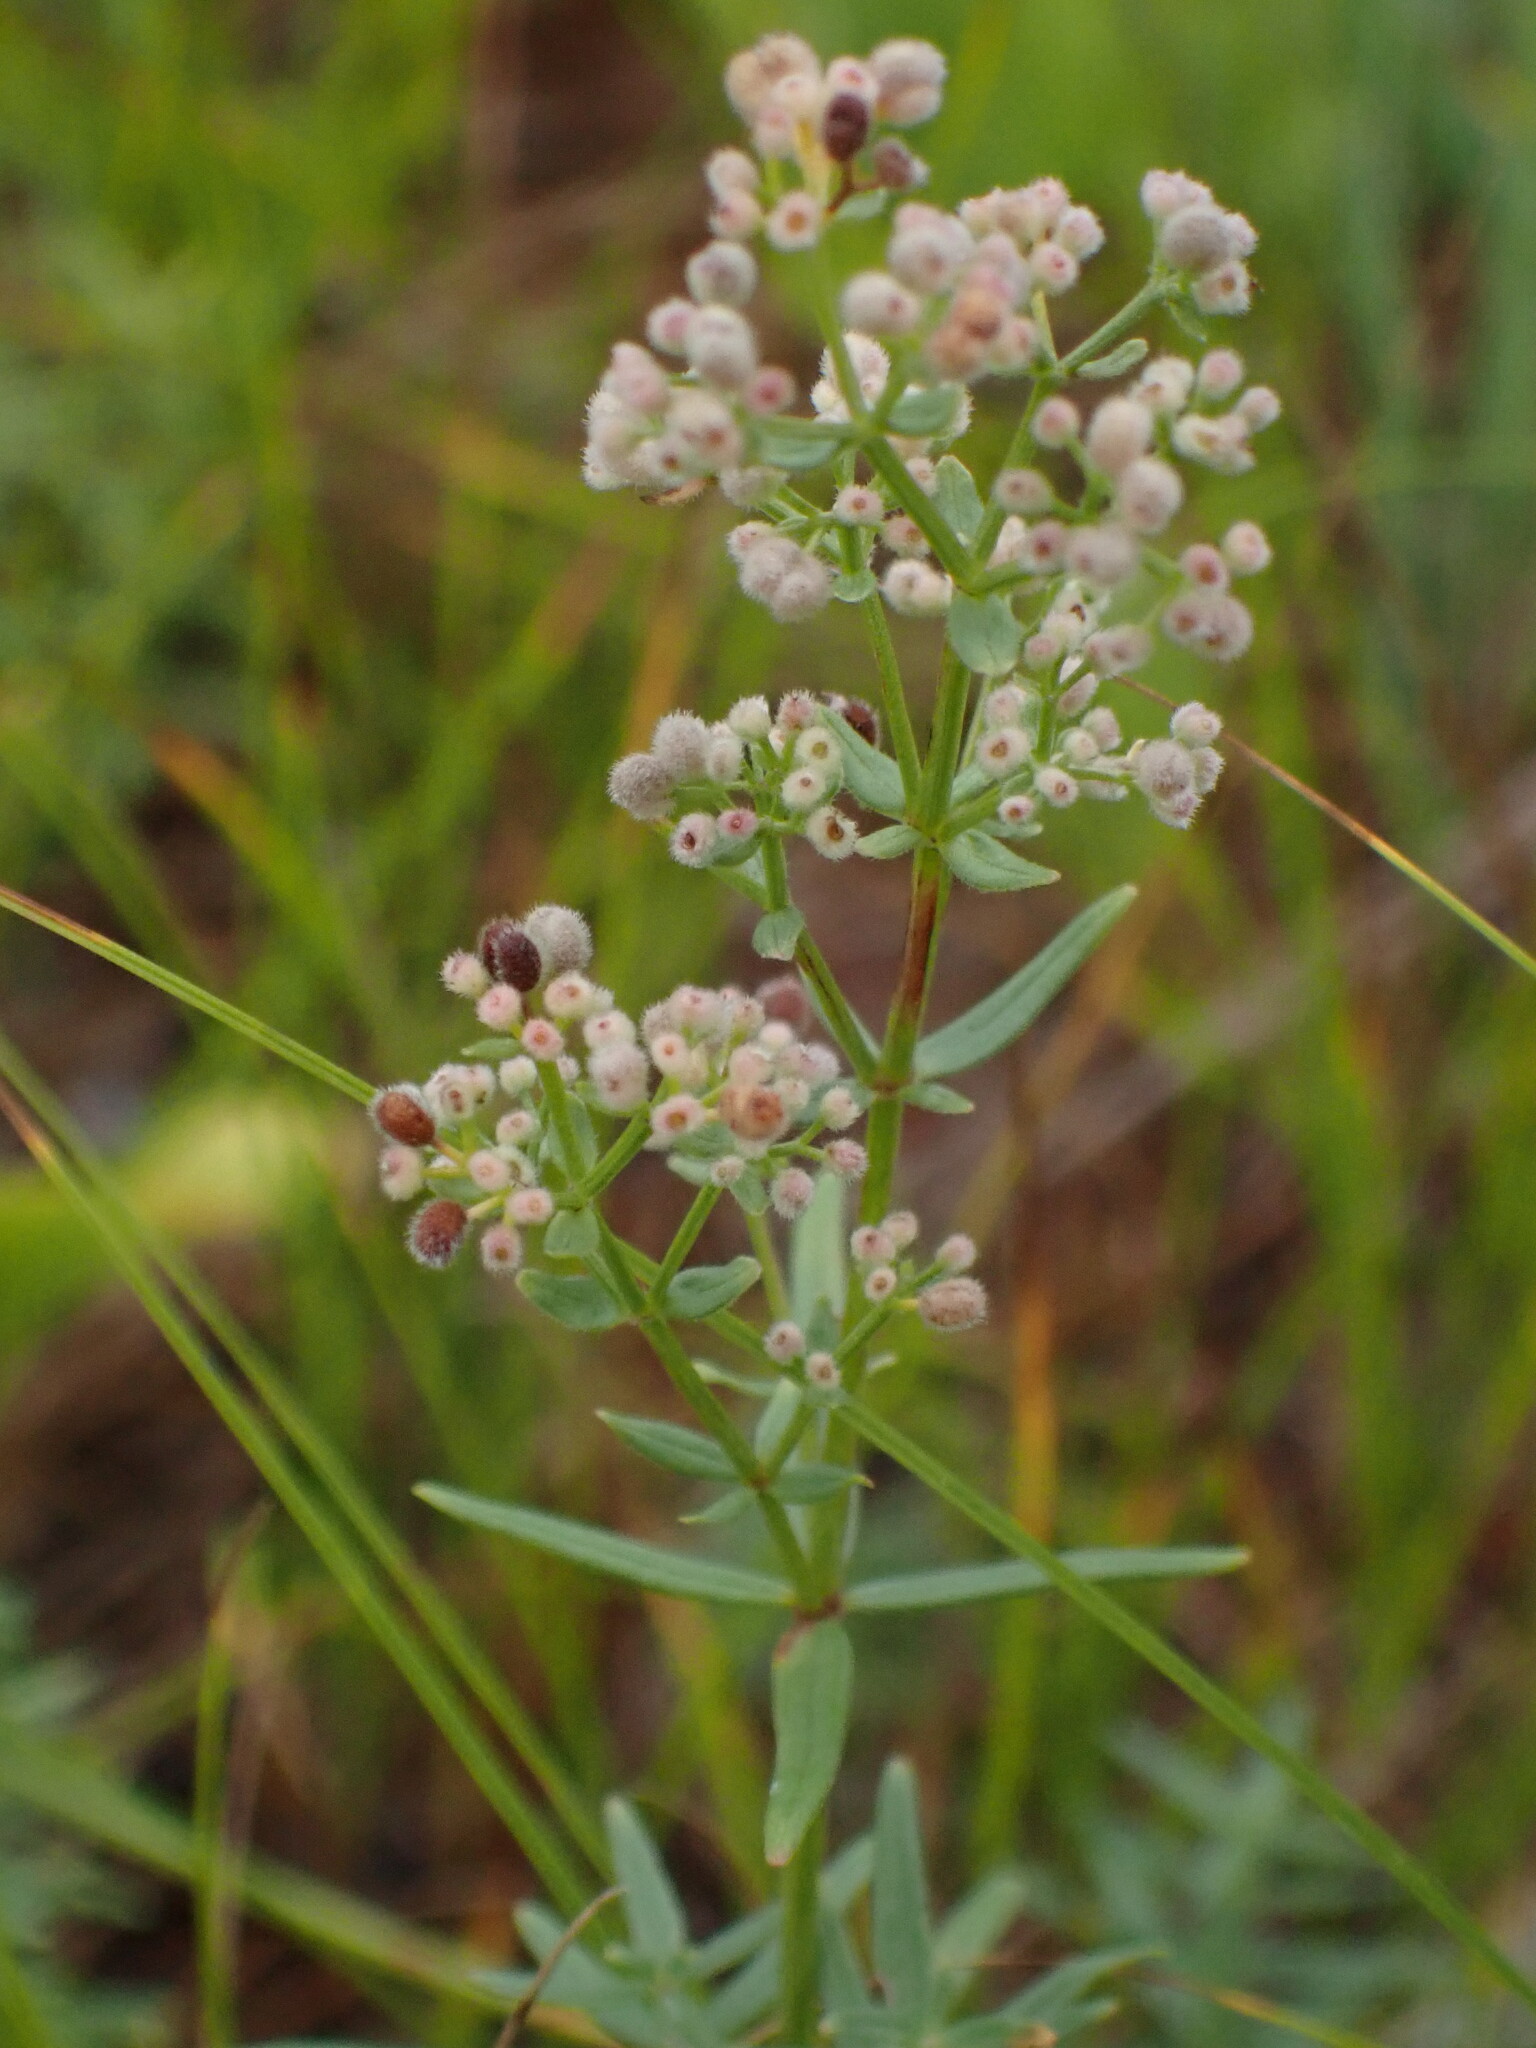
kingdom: Plantae
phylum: Tracheophyta
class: Magnoliopsida
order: Gentianales
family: Rubiaceae
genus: Galium
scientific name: Galium boreale
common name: Northern bedstraw
